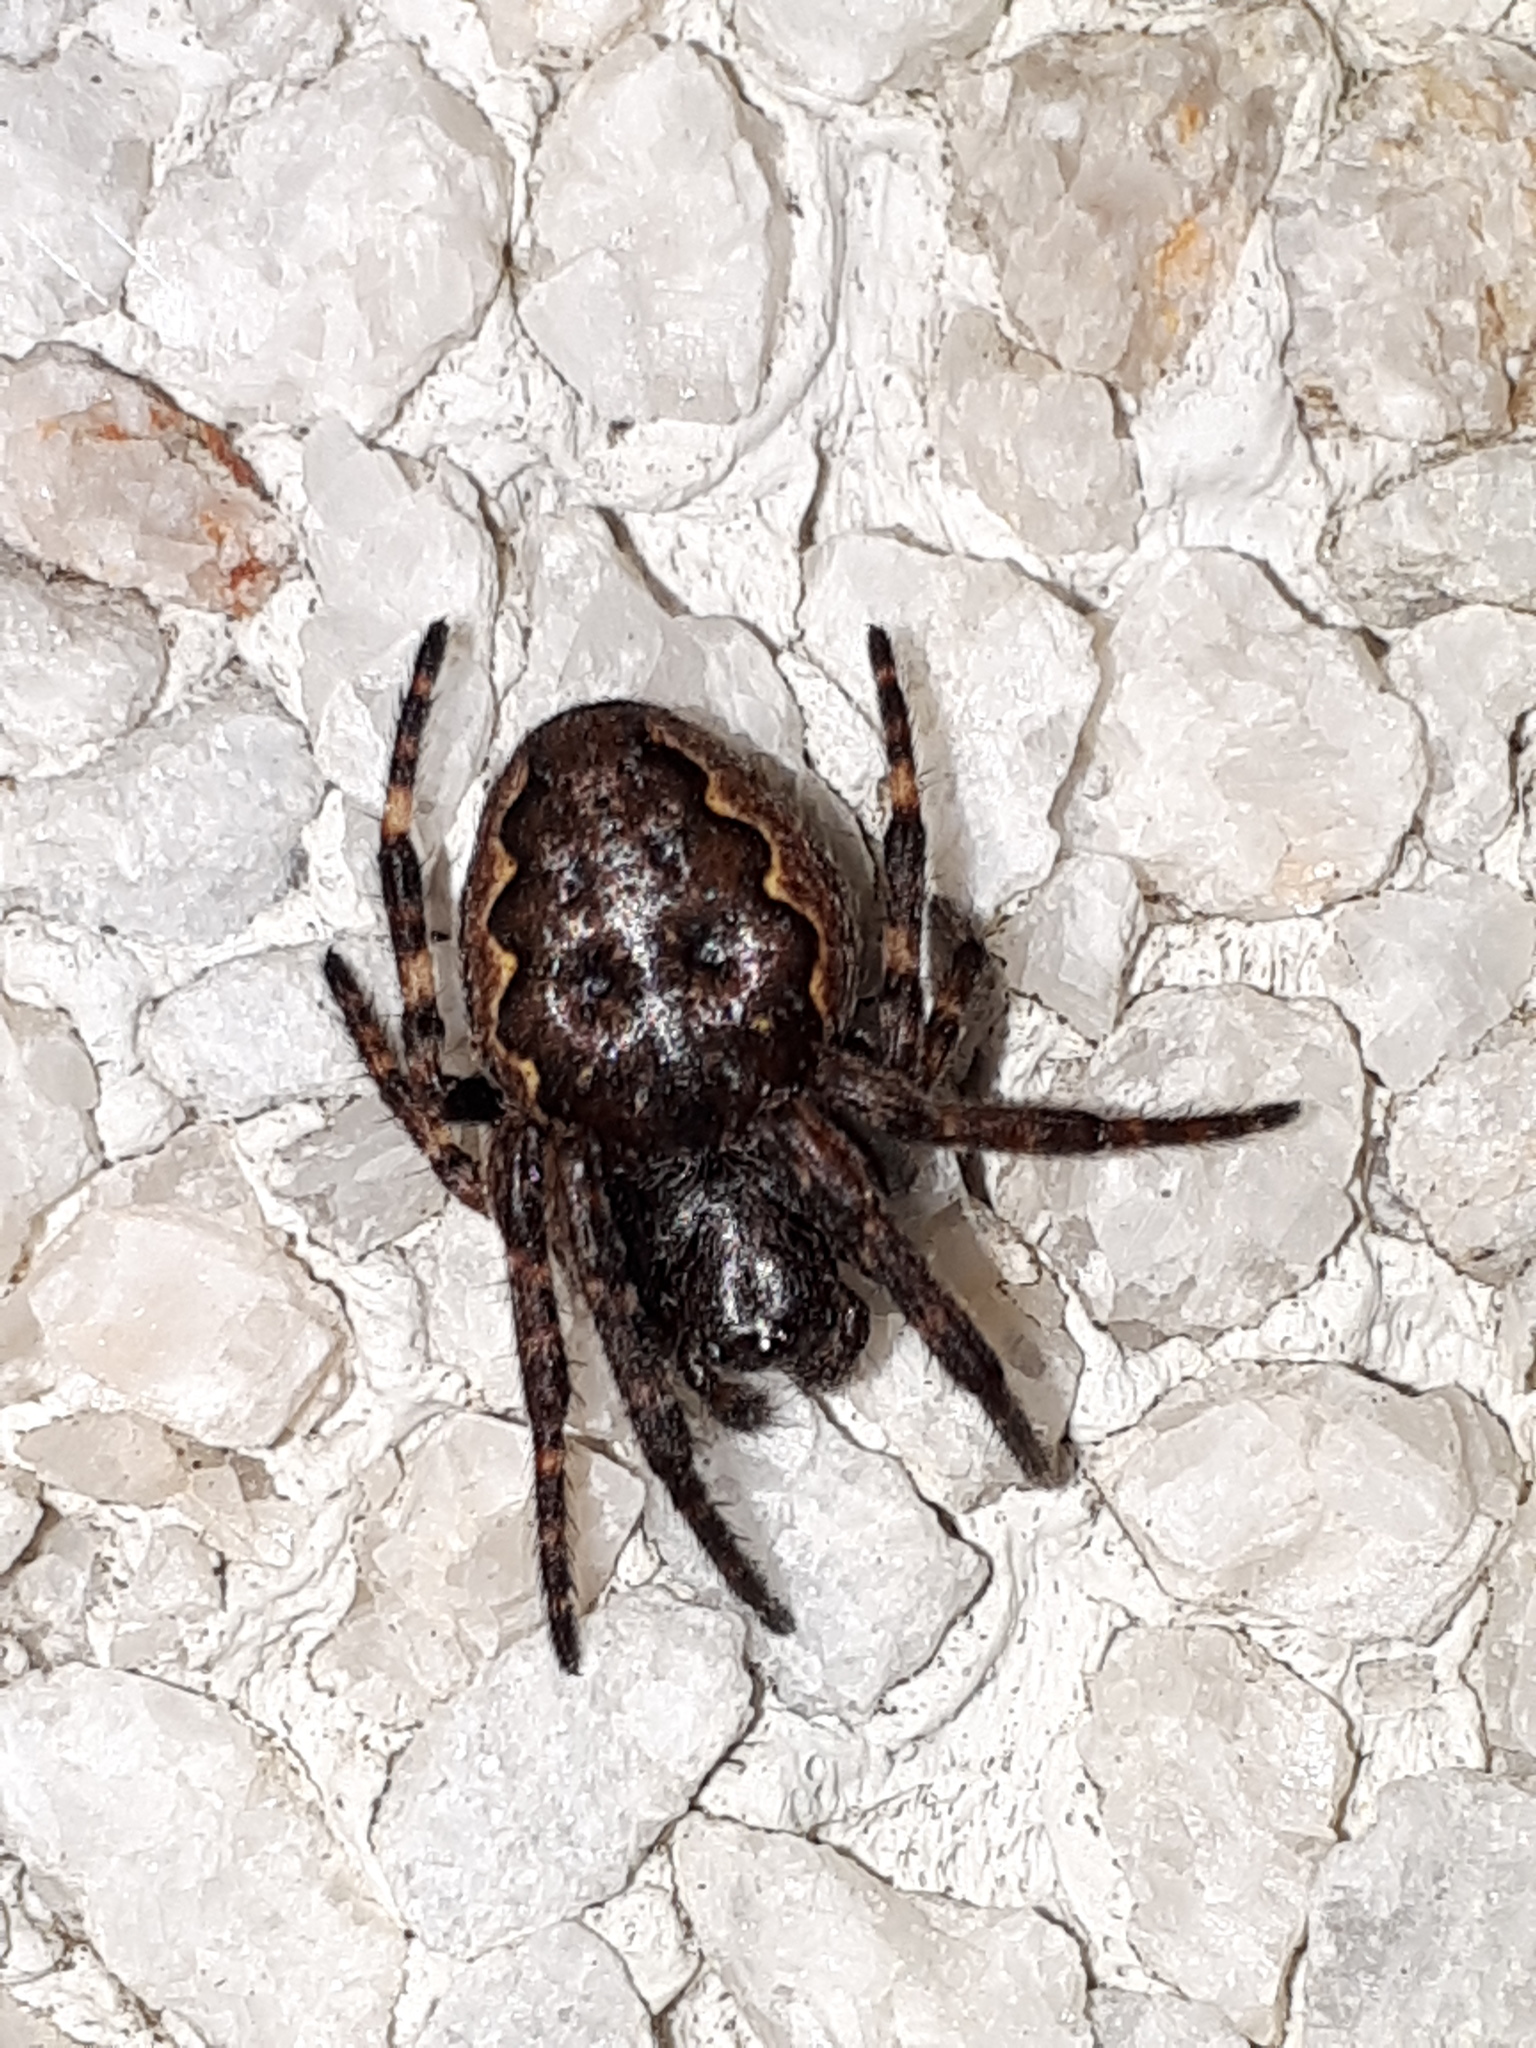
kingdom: Animalia
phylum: Arthropoda
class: Arachnida
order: Araneae
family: Araneidae
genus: Nuctenea
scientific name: Nuctenea umbratica
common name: Toad spider
